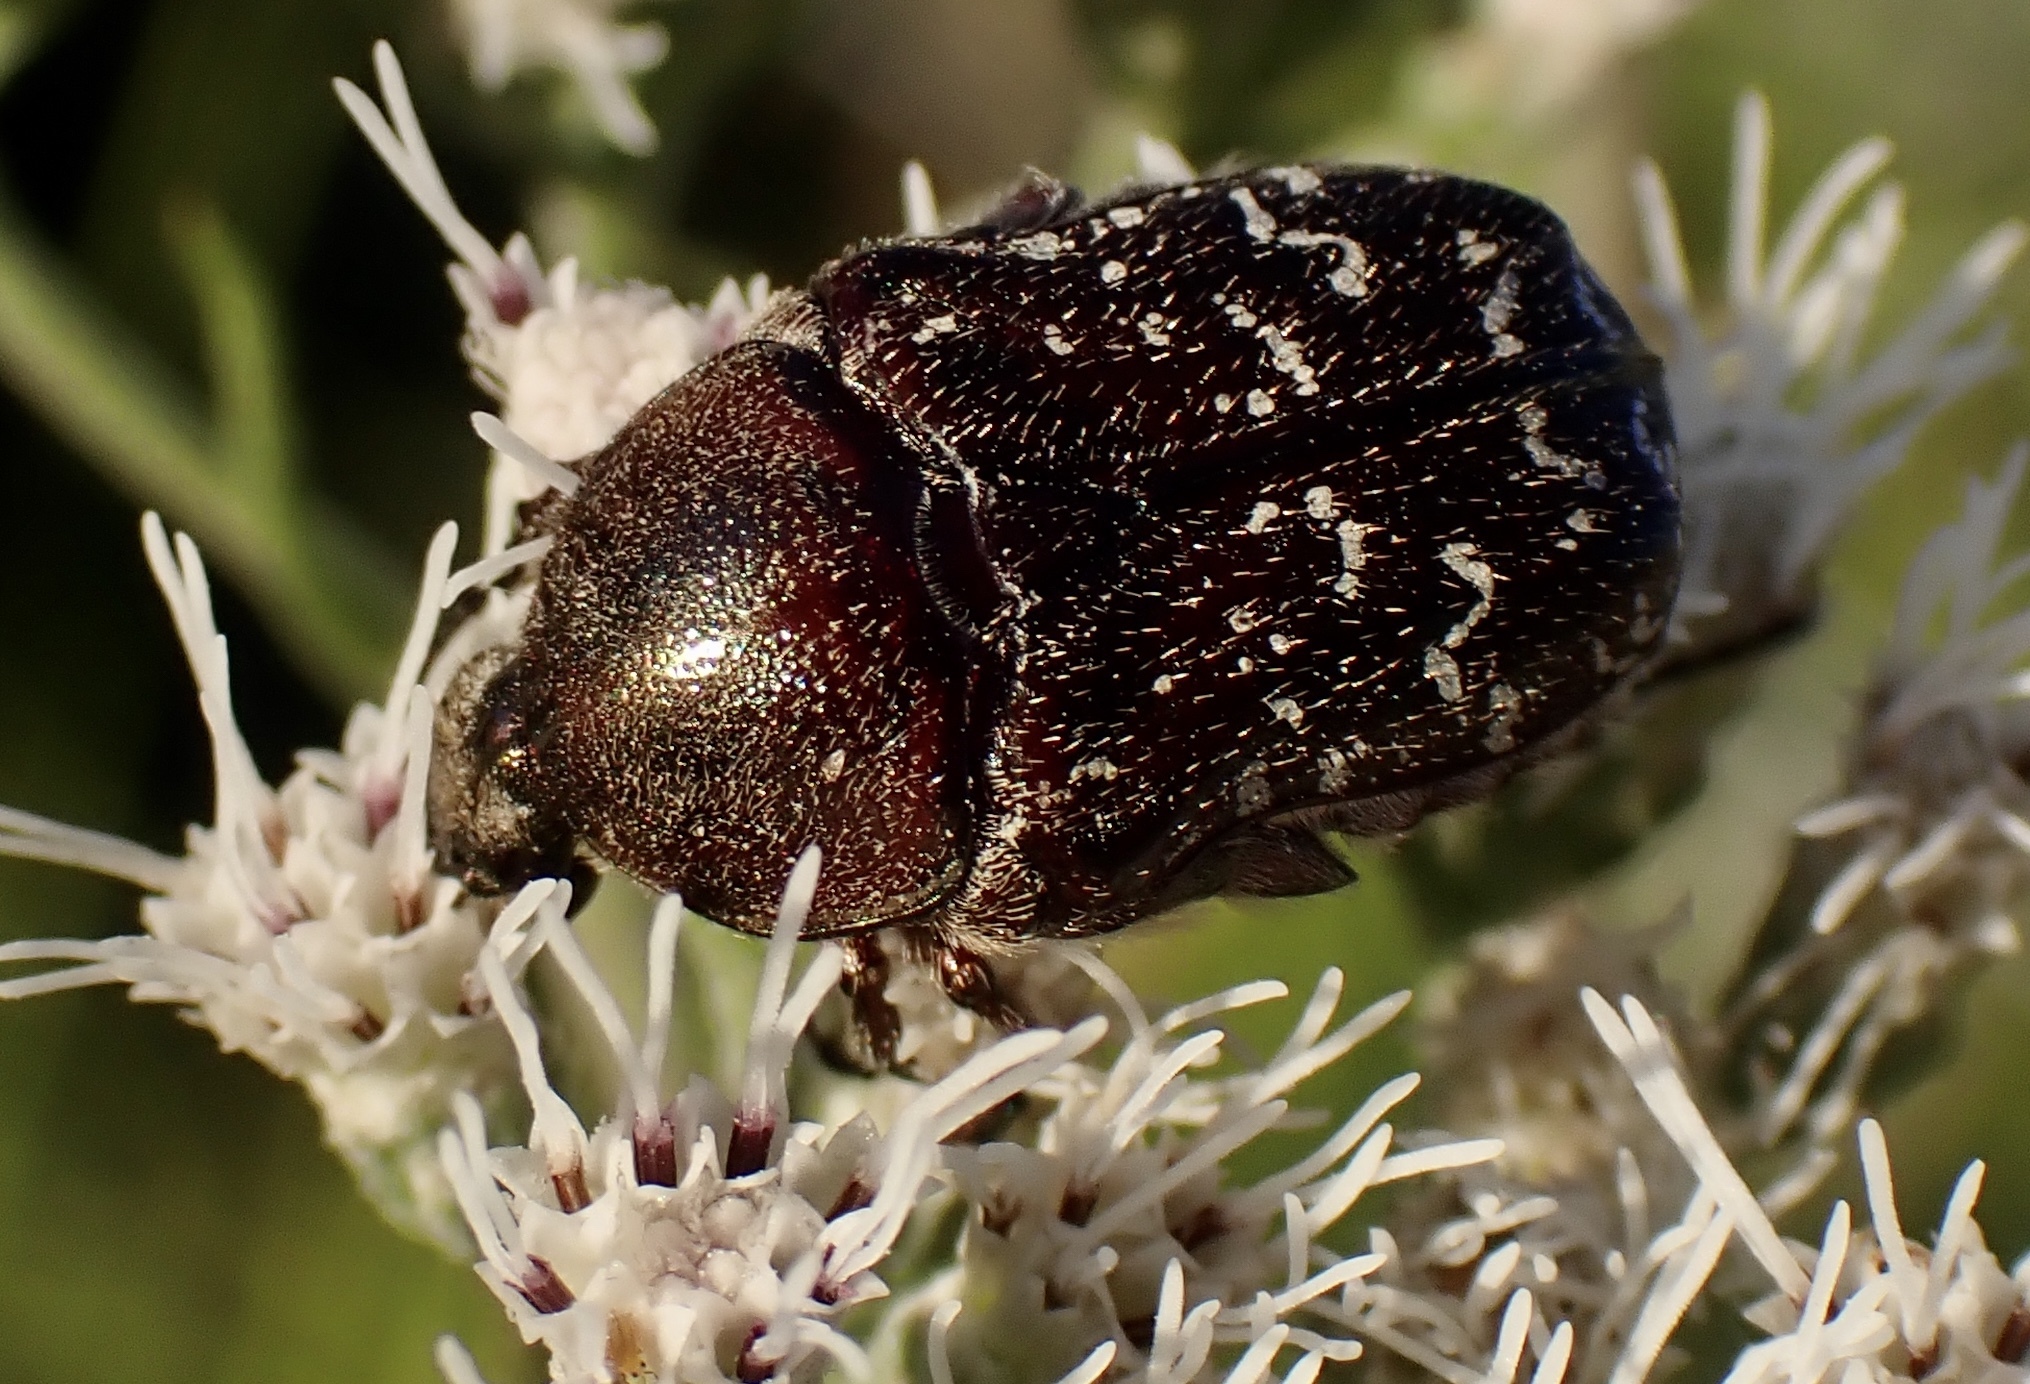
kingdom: Animalia
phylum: Arthropoda
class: Insecta
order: Coleoptera
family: Scarabaeidae
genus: Euphoria
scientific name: Euphoria sepulcralis
